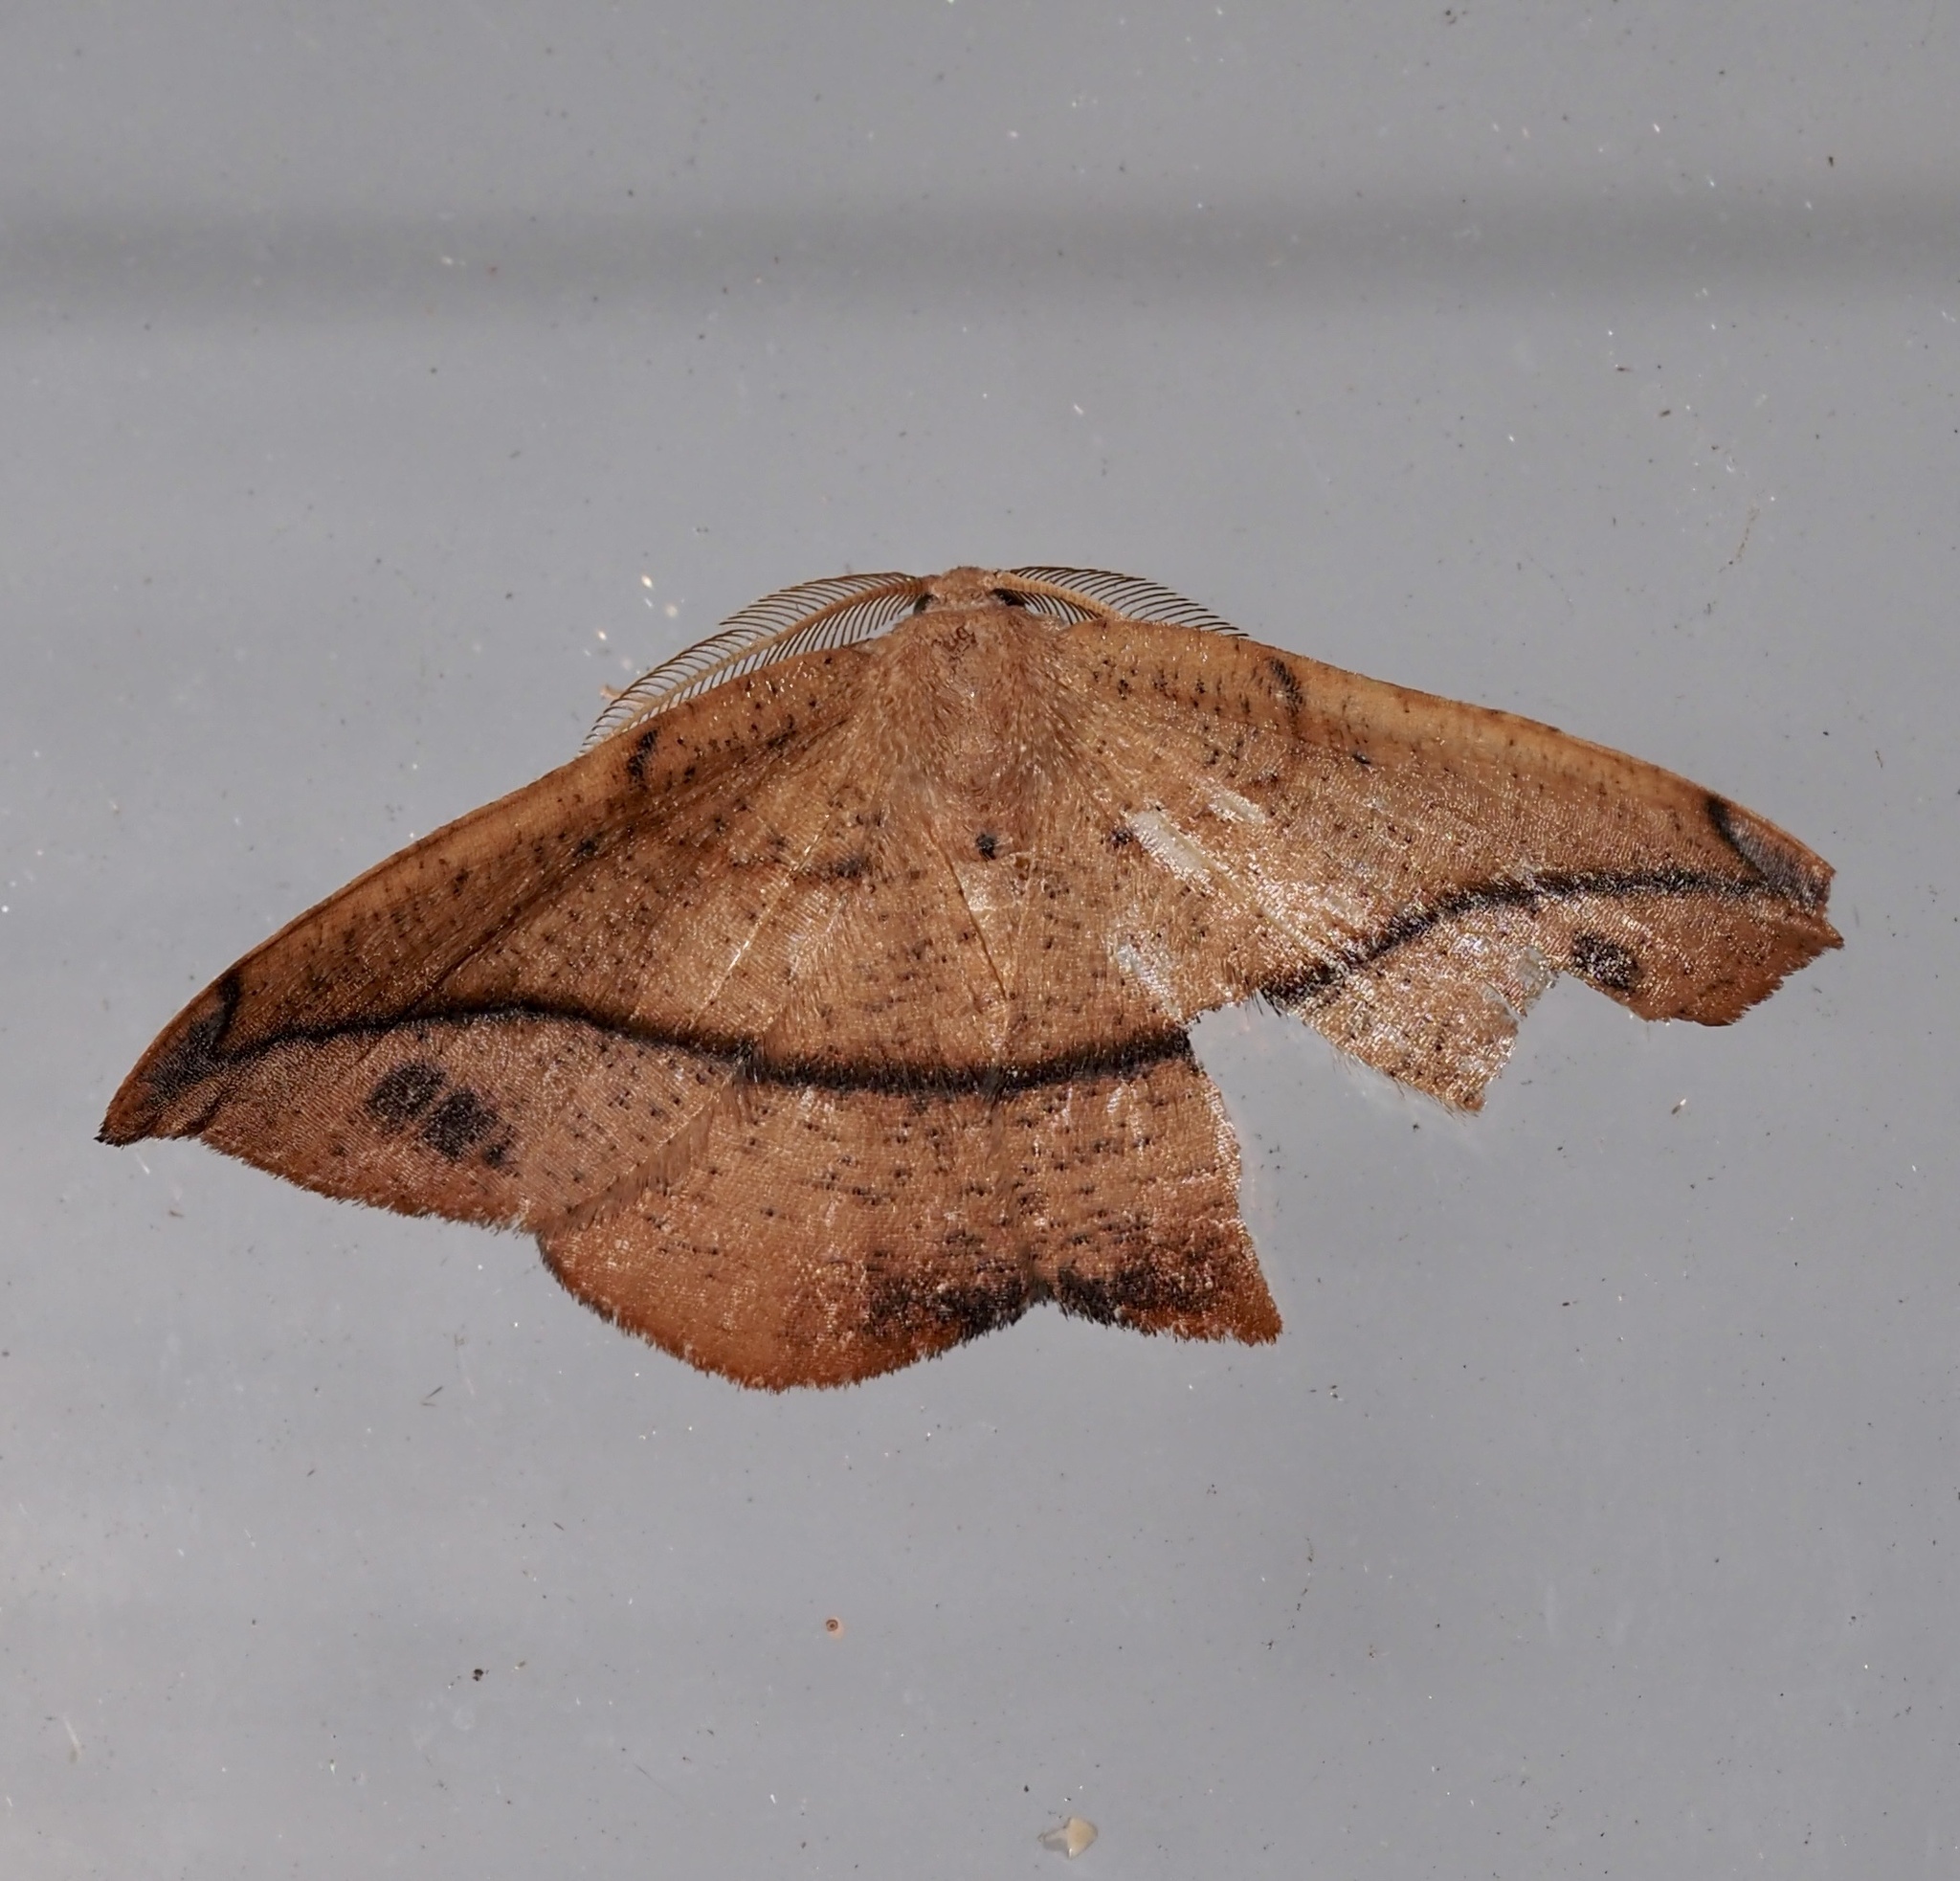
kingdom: Animalia
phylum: Arthropoda
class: Insecta
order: Lepidoptera
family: Geometridae
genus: Patalene
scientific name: Patalene olyzonaria
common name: Juniper geometer moth
